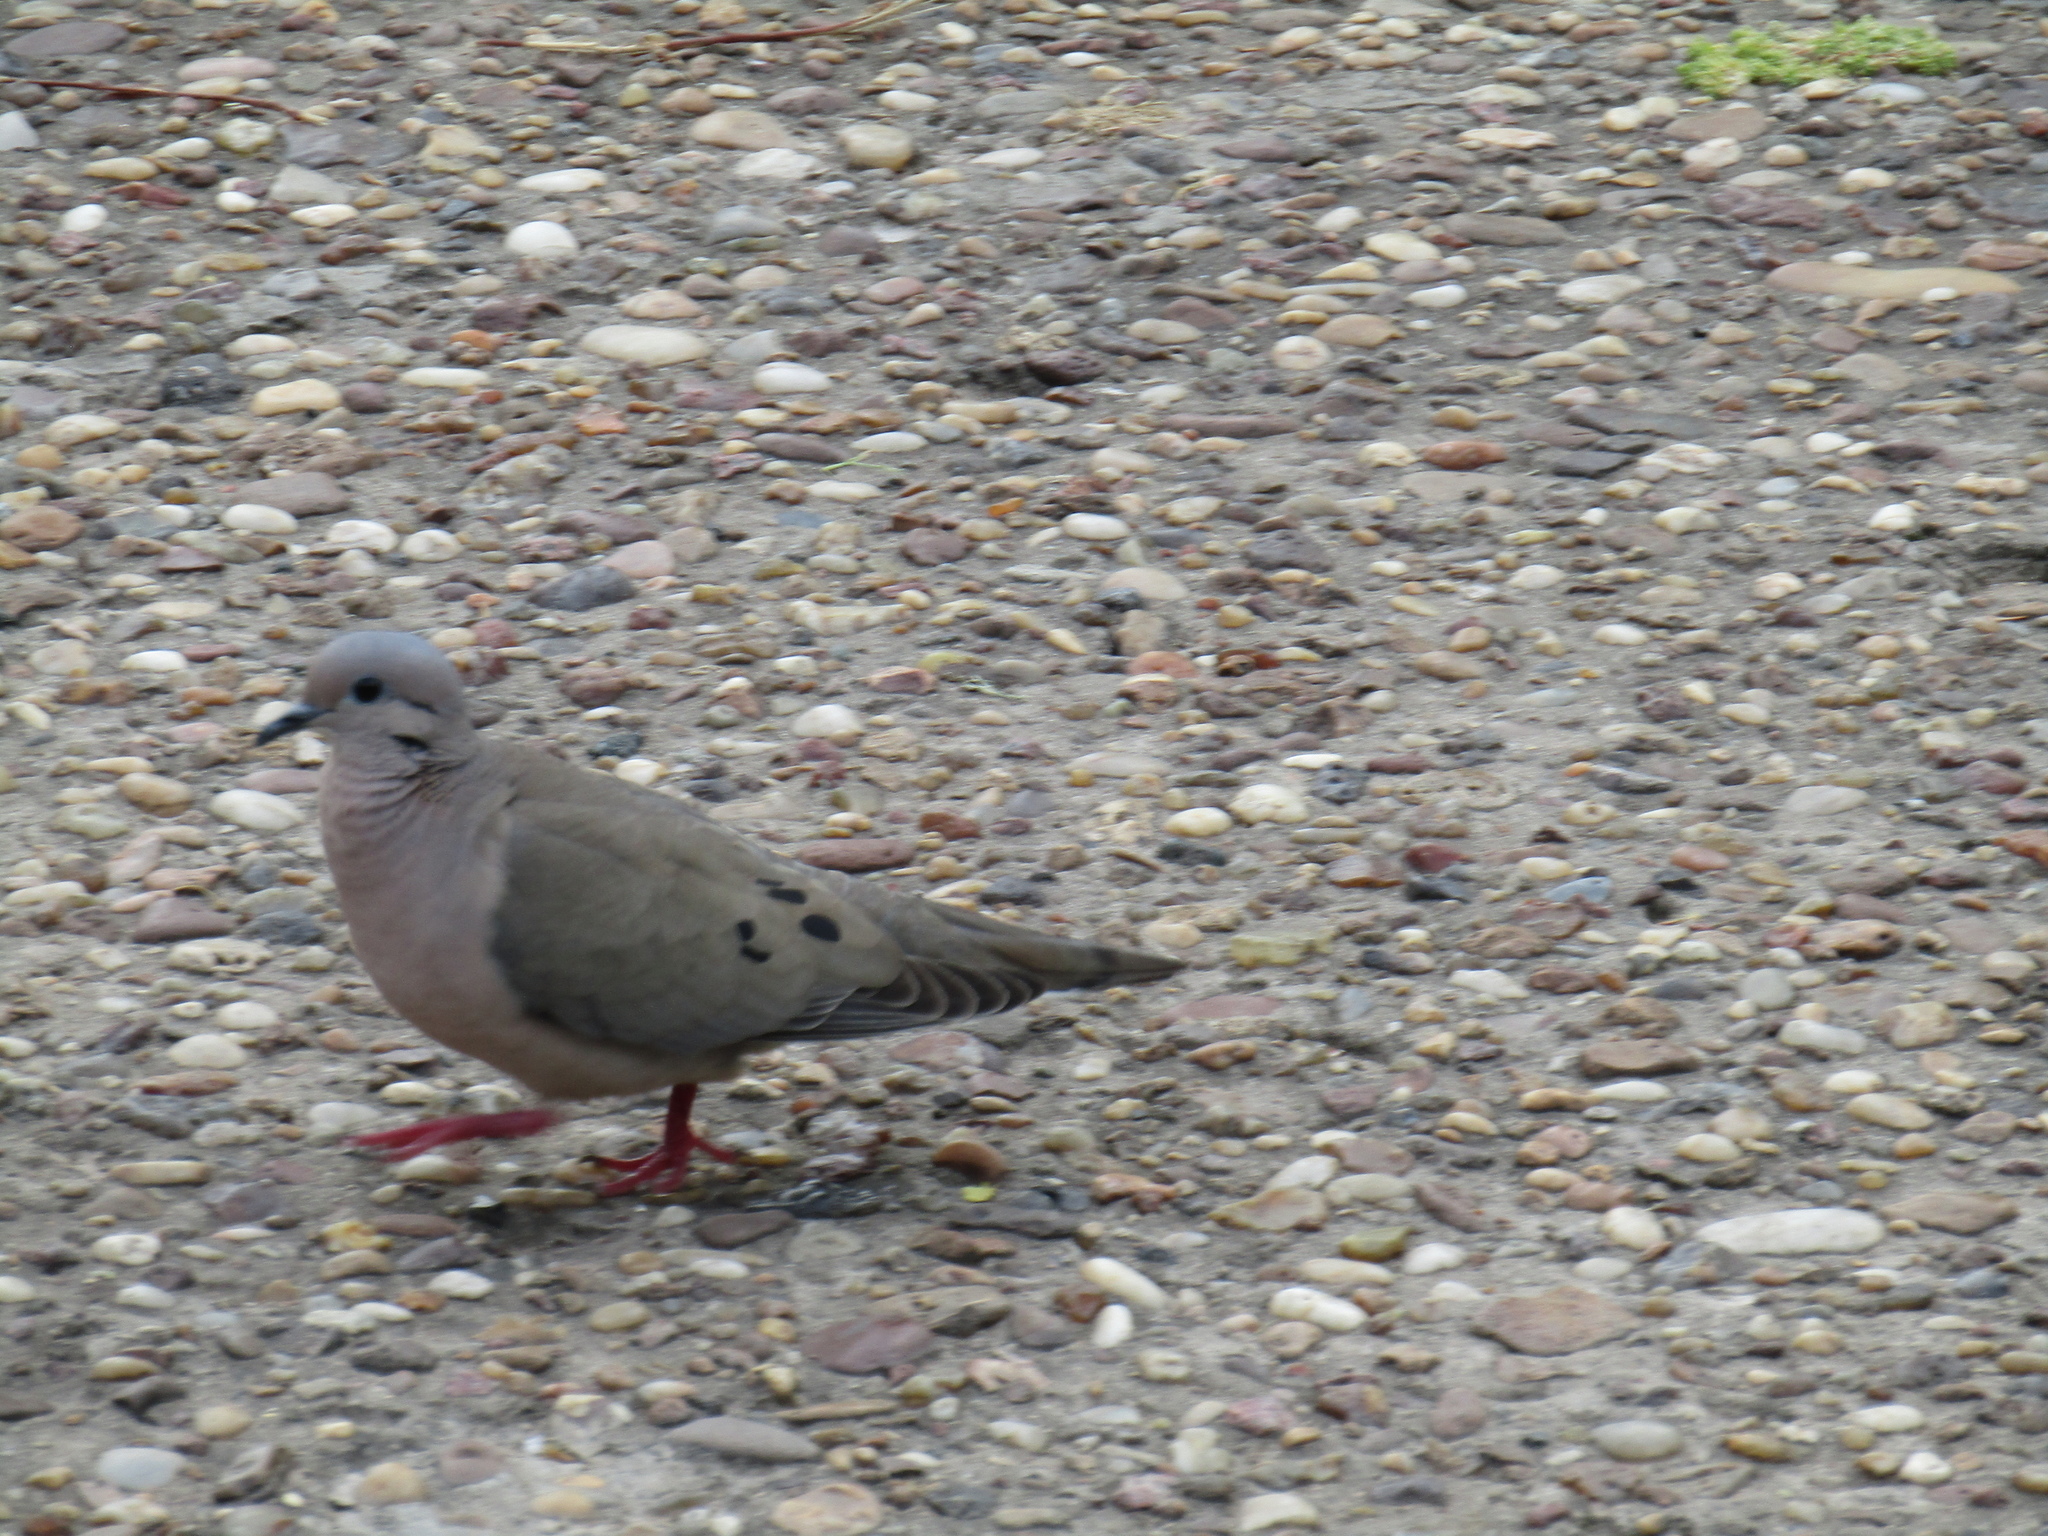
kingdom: Animalia
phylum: Chordata
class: Aves
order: Columbiformes
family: Columbidae
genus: Zenaida
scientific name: Zenaida auriculata
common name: Eared dove
